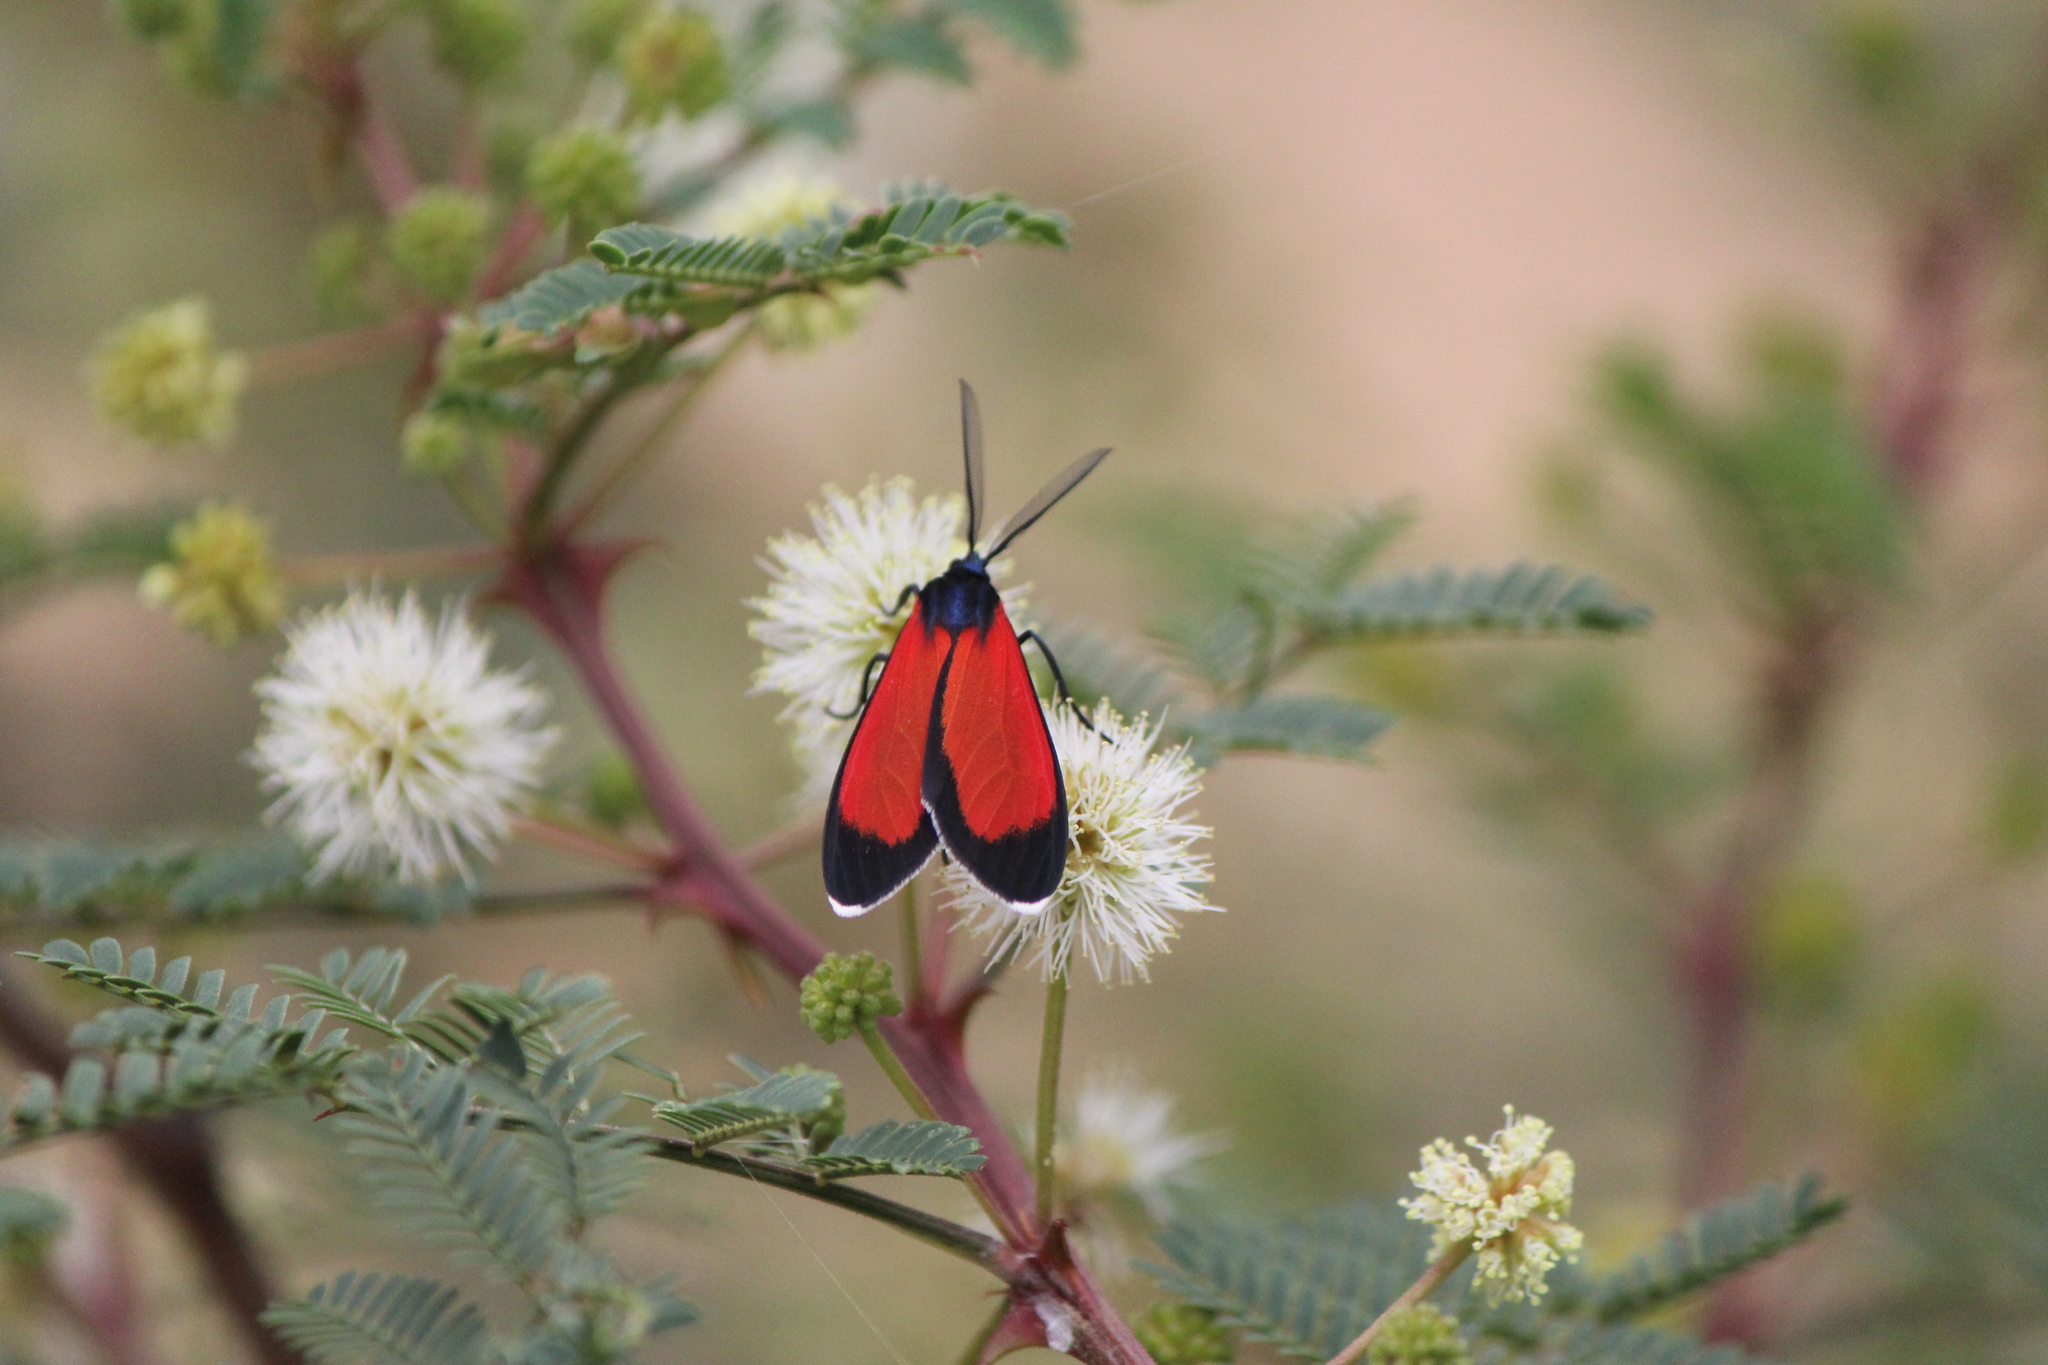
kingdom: Animalia
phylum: Arthropoda
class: Insecta
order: Lepidoptera
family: Erebidae
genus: Cyanopepla
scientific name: Cyanopepla griseldis
